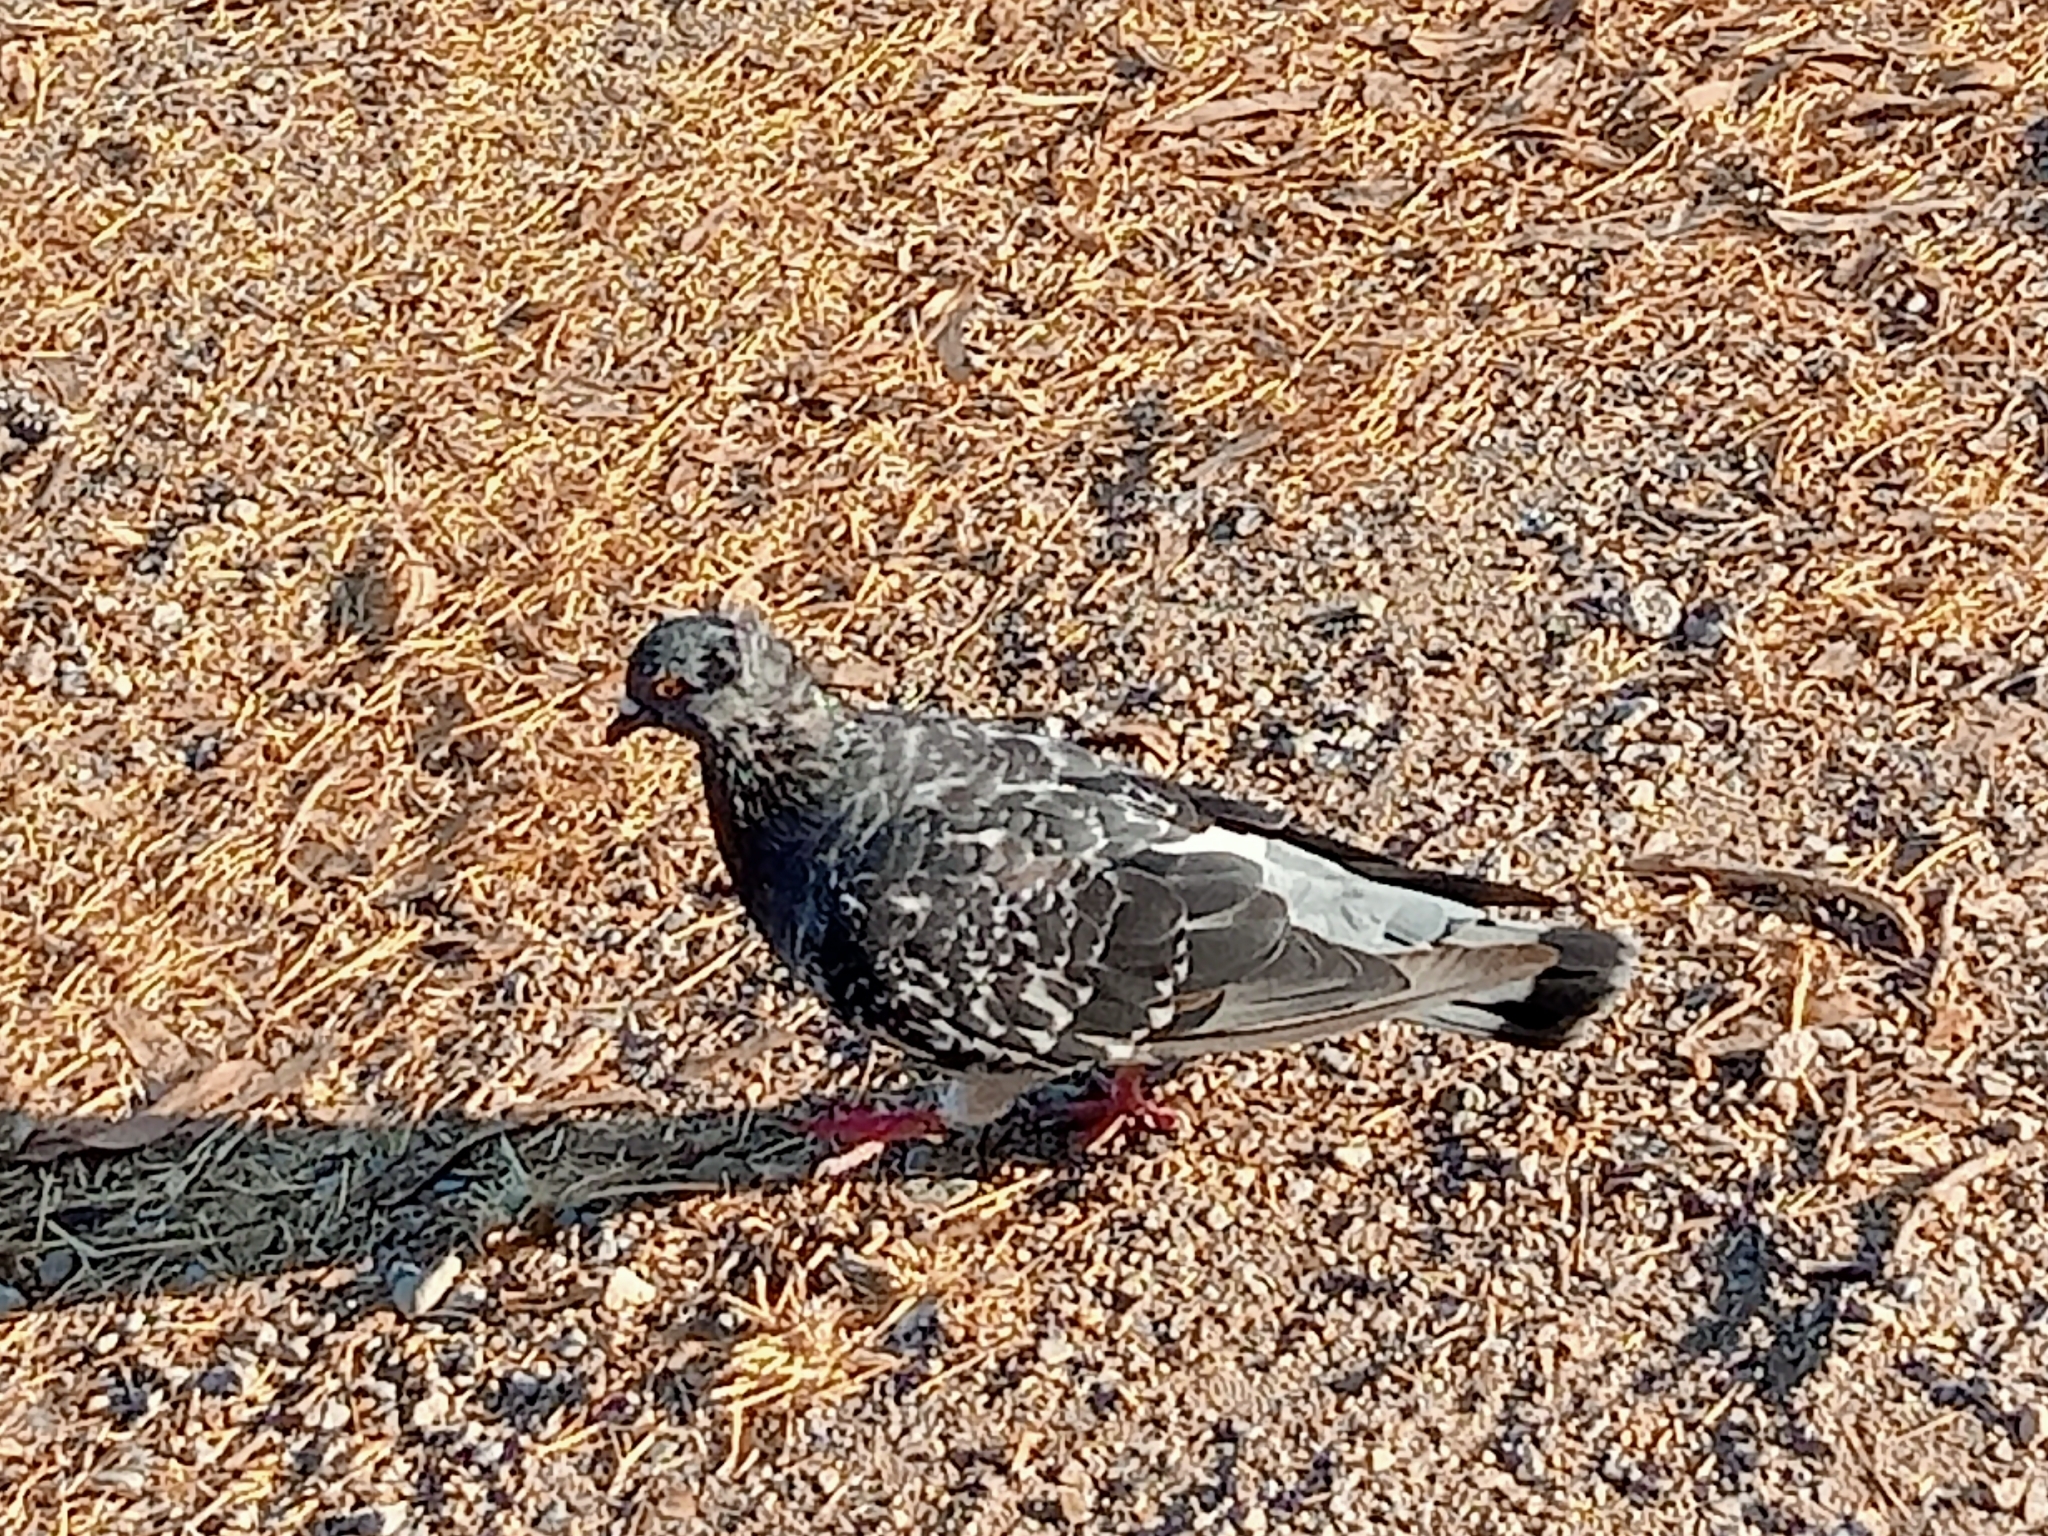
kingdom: Animalia
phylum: Chordata
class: Aves
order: Columbiformes
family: Columbidae
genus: Columba
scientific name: Columba livia
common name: Rock pigeon
